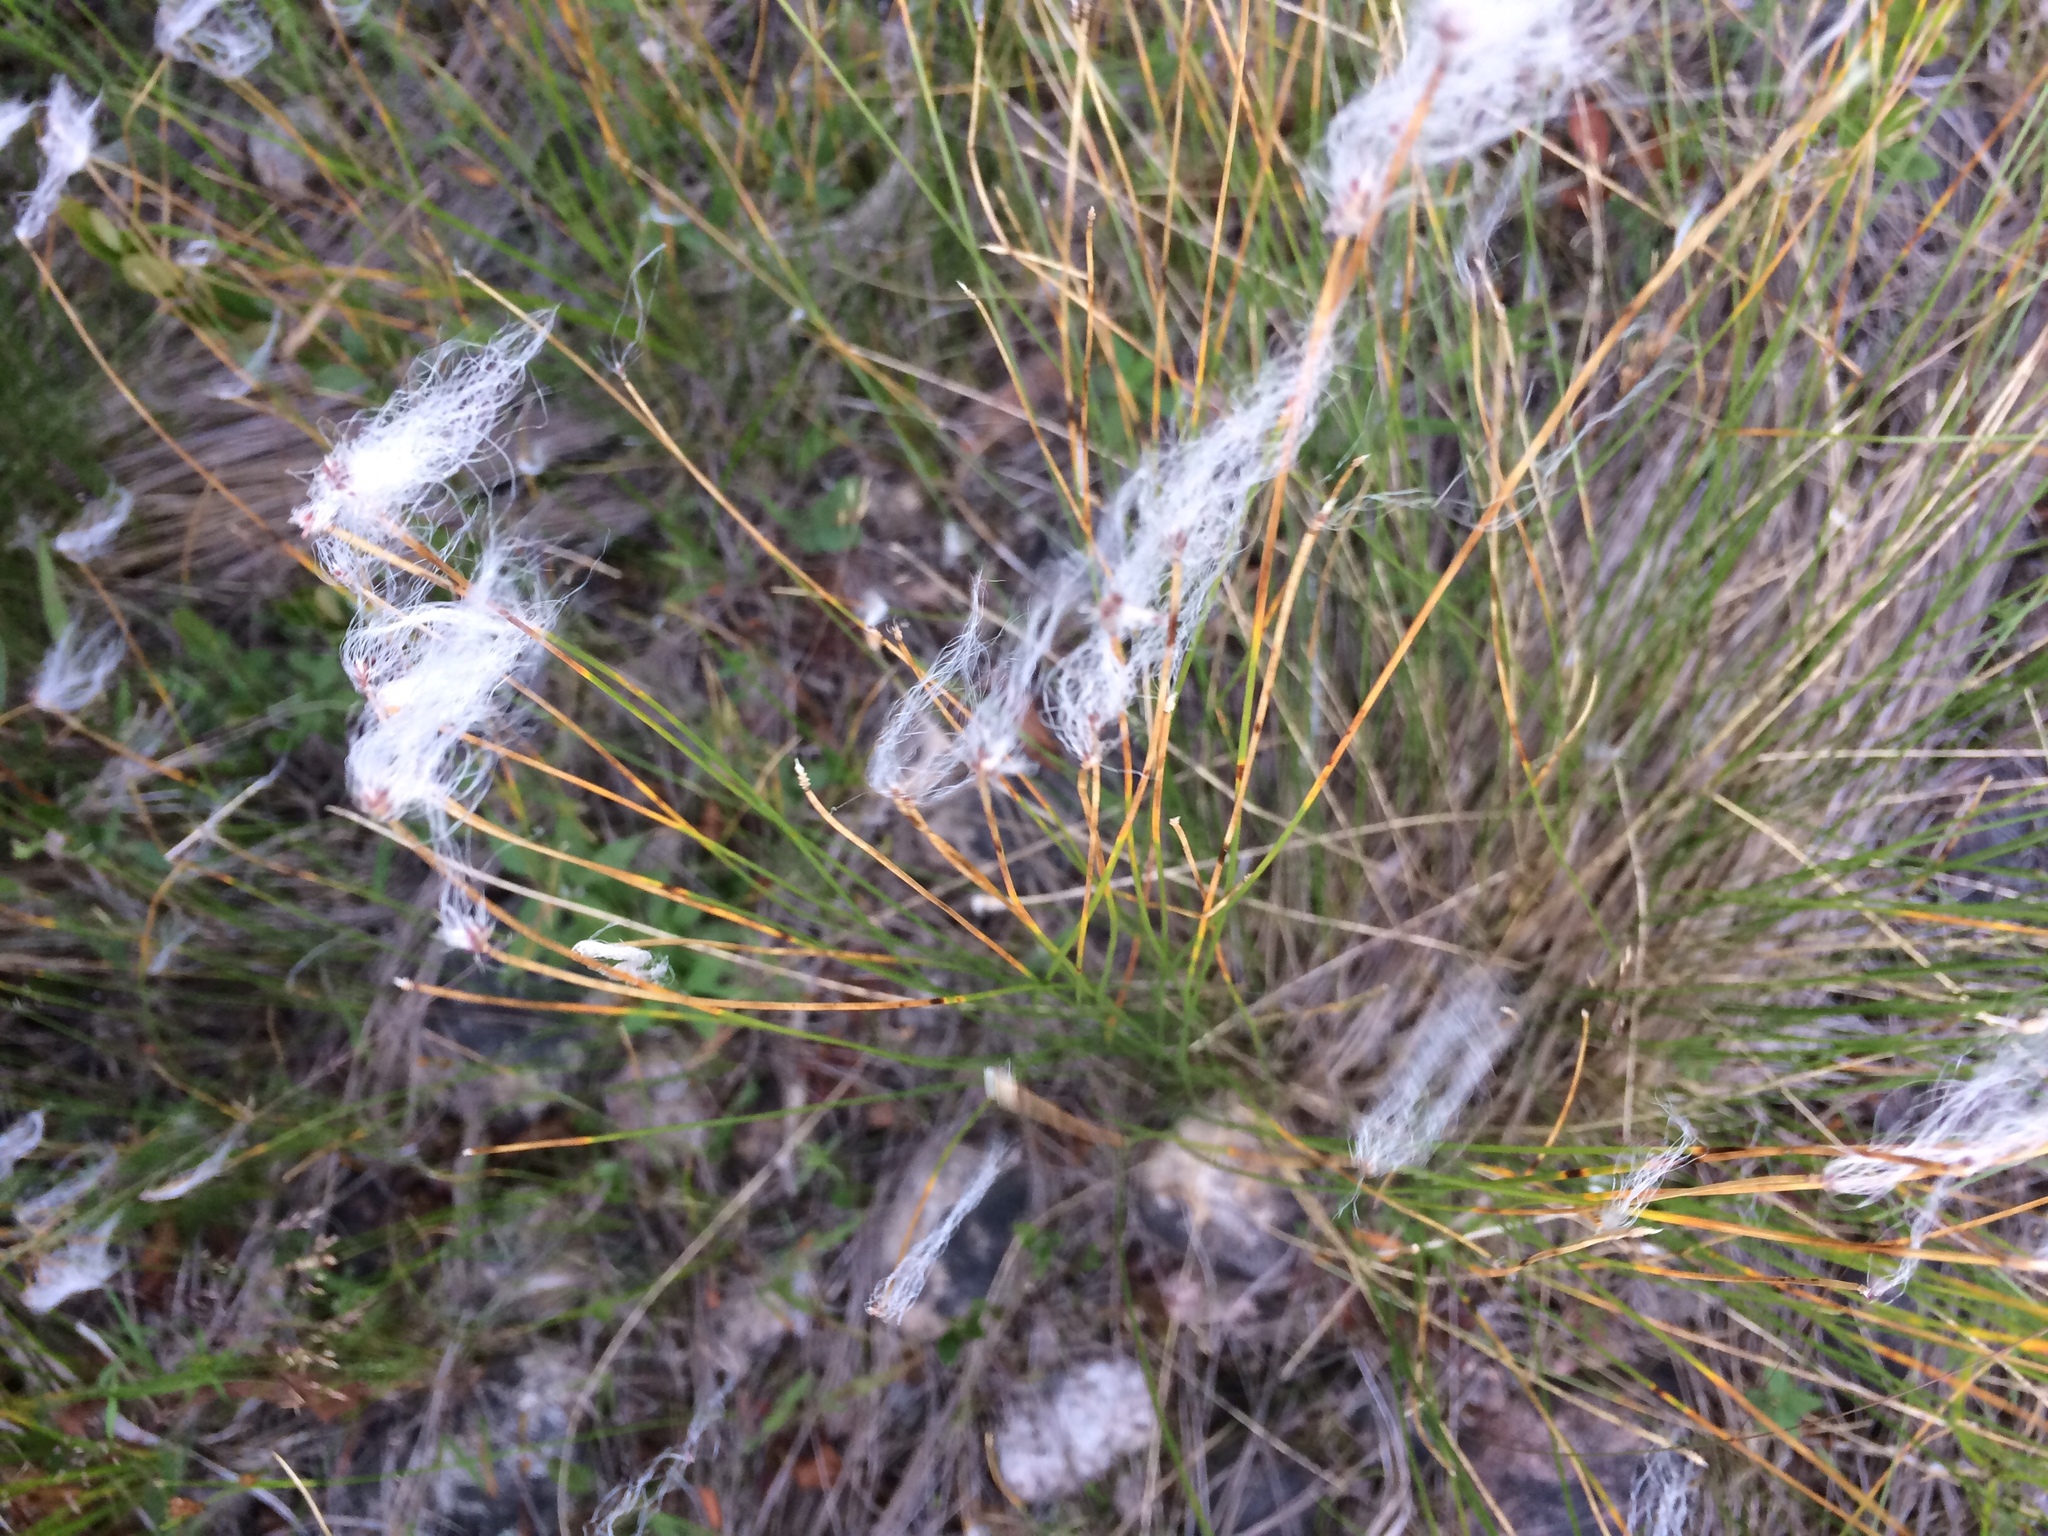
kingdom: Plantae
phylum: Tracheophyta
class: Liliopsida
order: Poales
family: Cyperaceae
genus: Trichophorum
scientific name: Trichophorum alpinum
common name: Alpine bulrush
